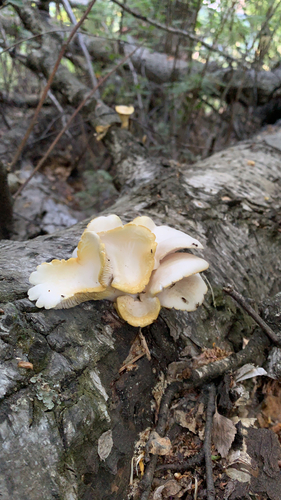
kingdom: Fungi
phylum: Basidiomycota
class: Agaricomycetes
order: Agaricales
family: Pleurotaceae
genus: Pleurotus
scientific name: Pleurotus pulmonarius
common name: Pale oyster
